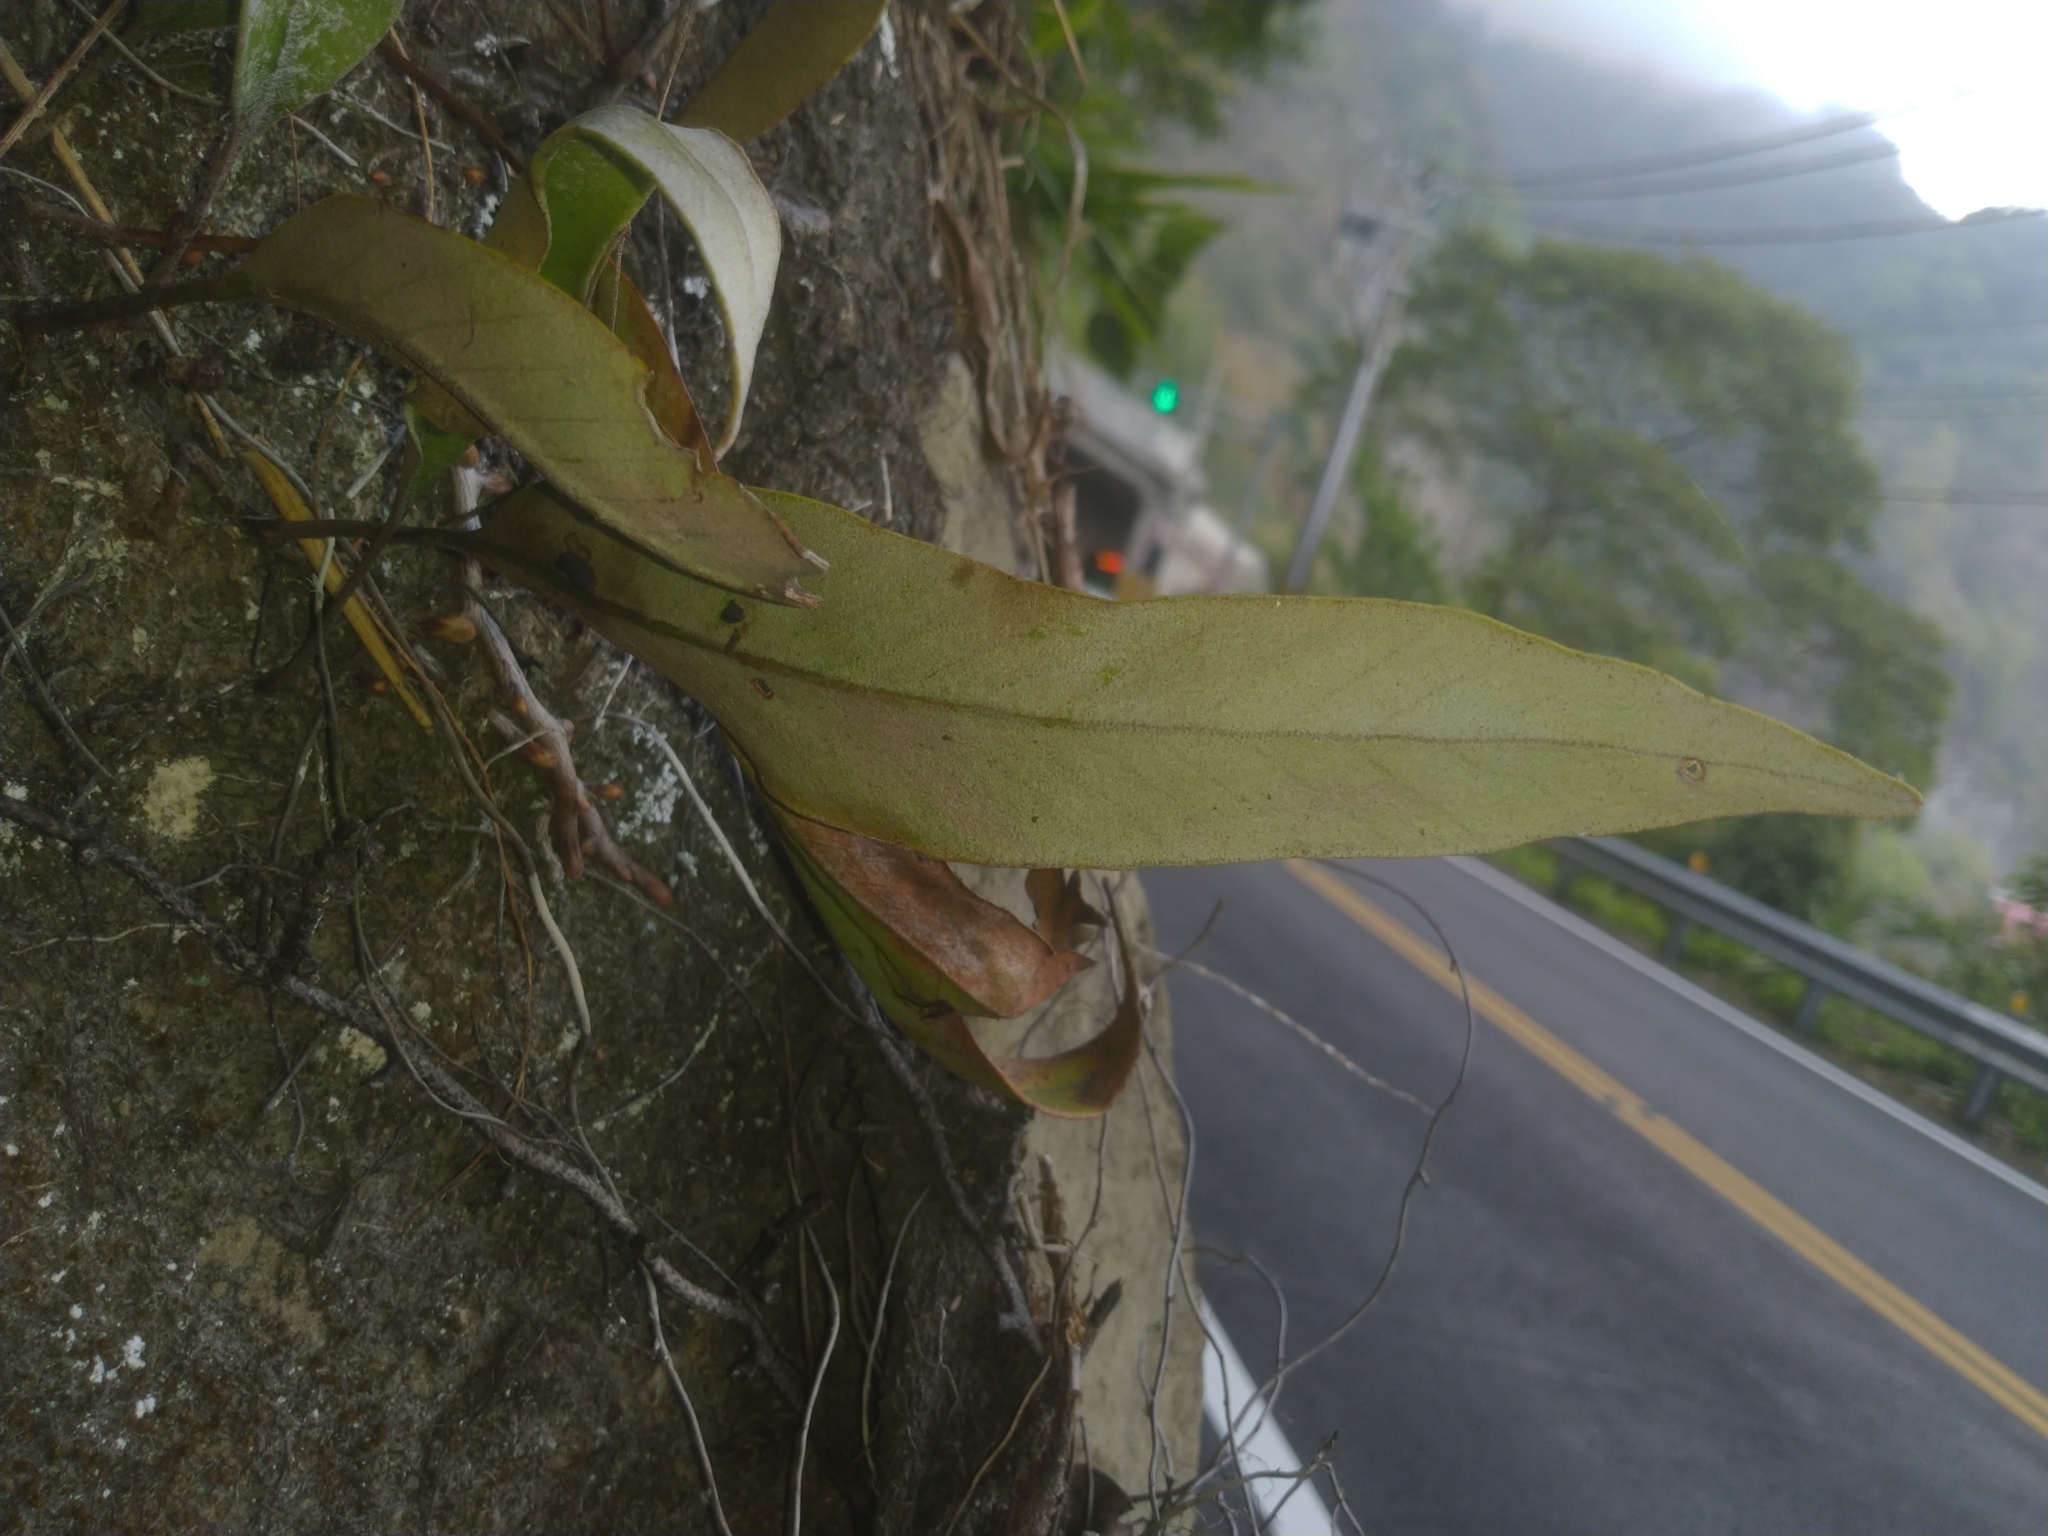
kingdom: Plantae
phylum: Tracheophyta
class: Polypodiopsida
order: Polypodiales
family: Polypodiaceae
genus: Pyrrosia
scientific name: Pyrrosia lingua
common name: Felt fern
